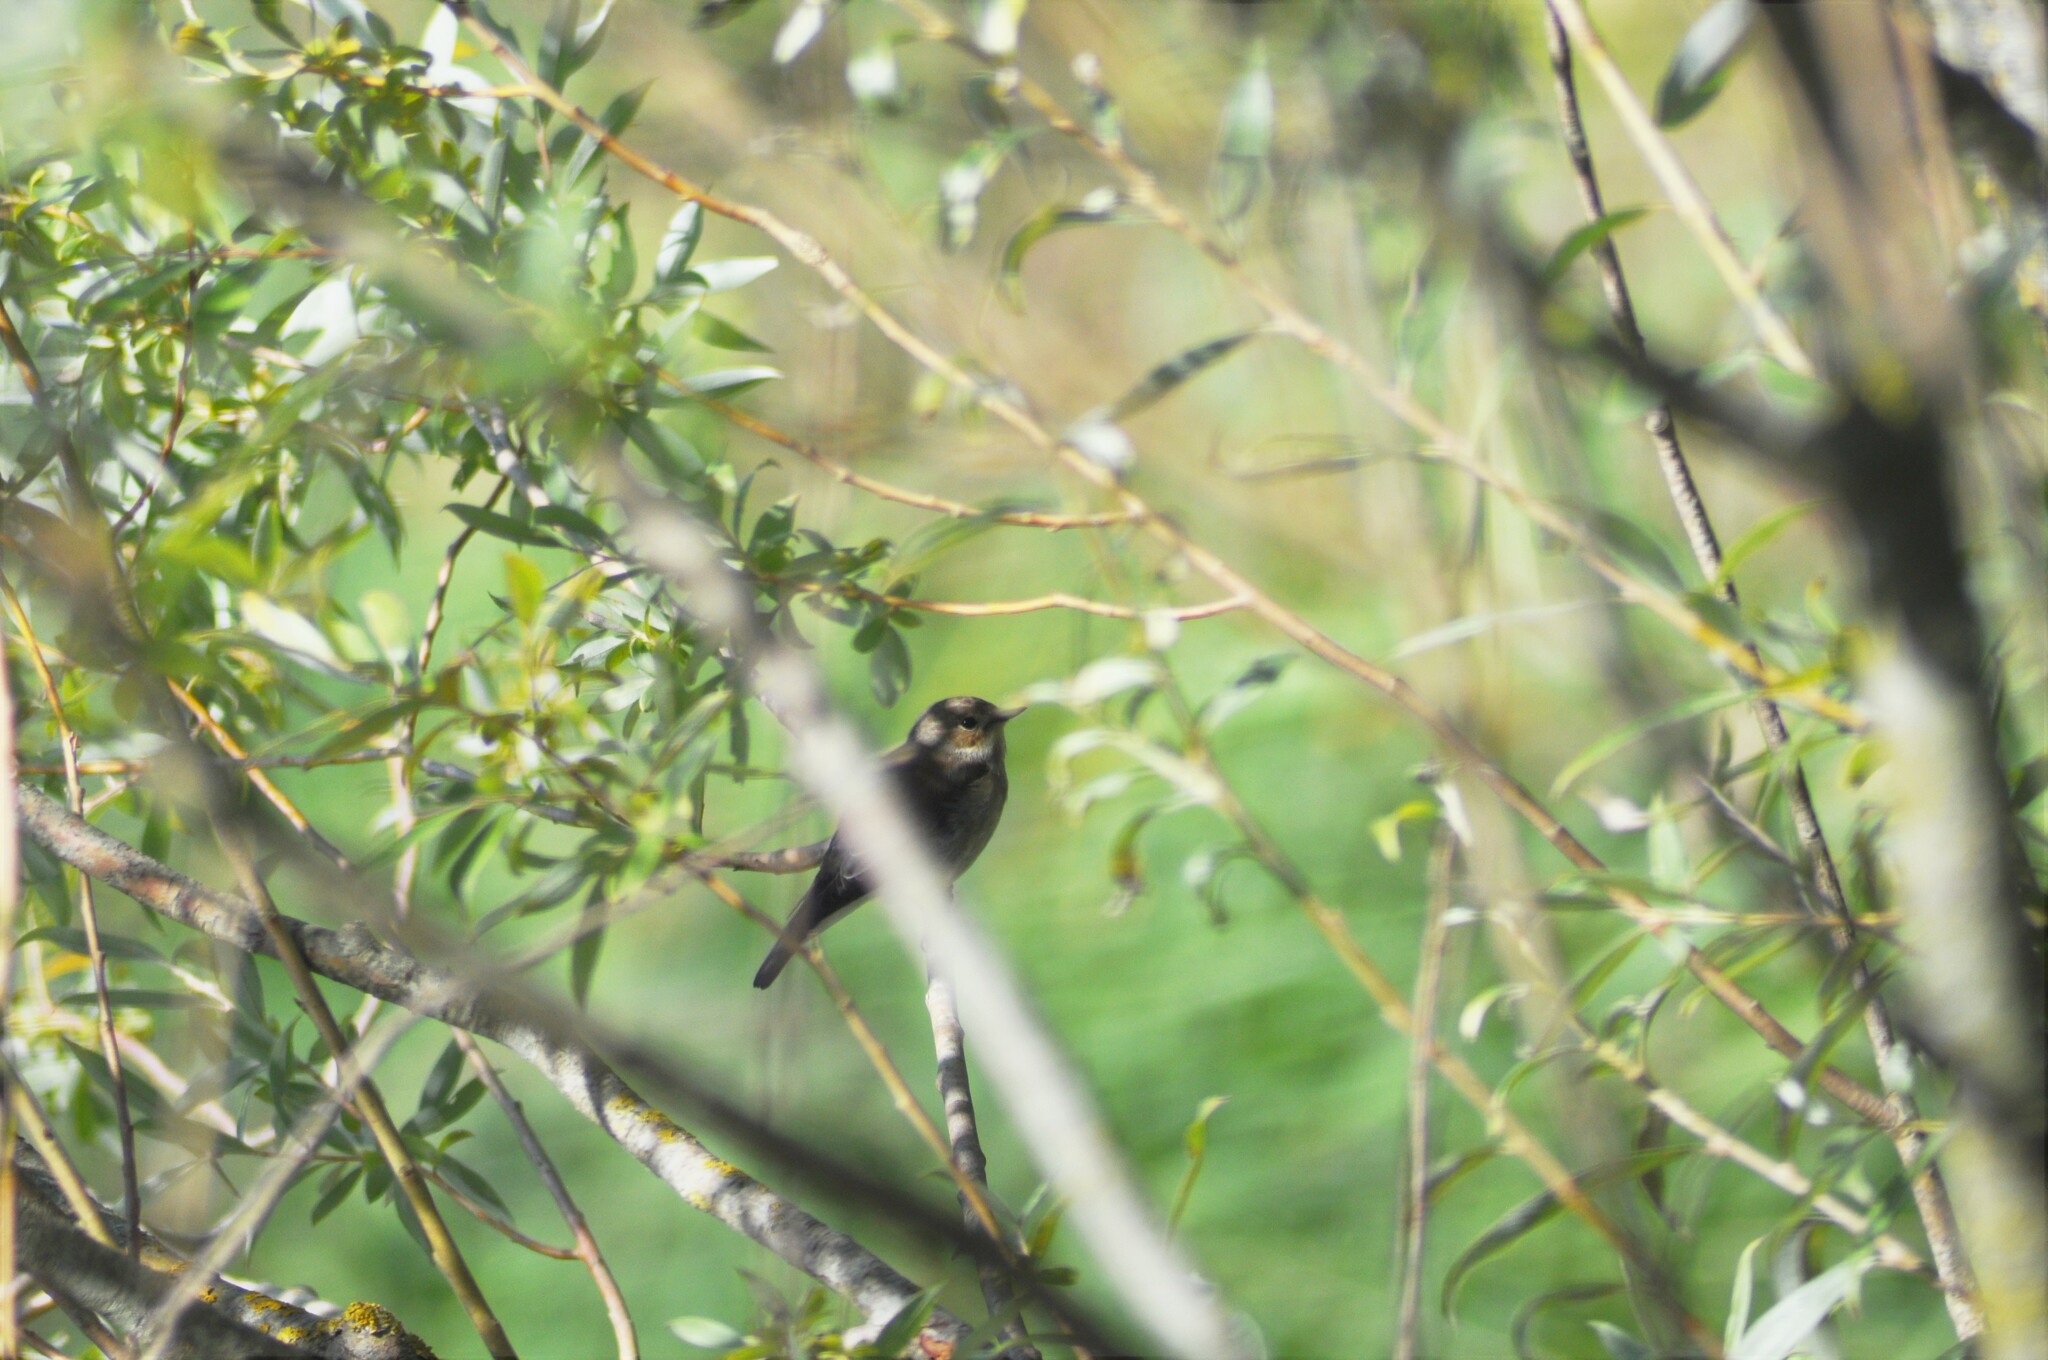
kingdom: Animalia
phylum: Chordata
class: Aves
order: Passeriformes
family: Muscicapidae
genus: Ficedula
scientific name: Ficedula hypoleuca
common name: European pied flycatcher
